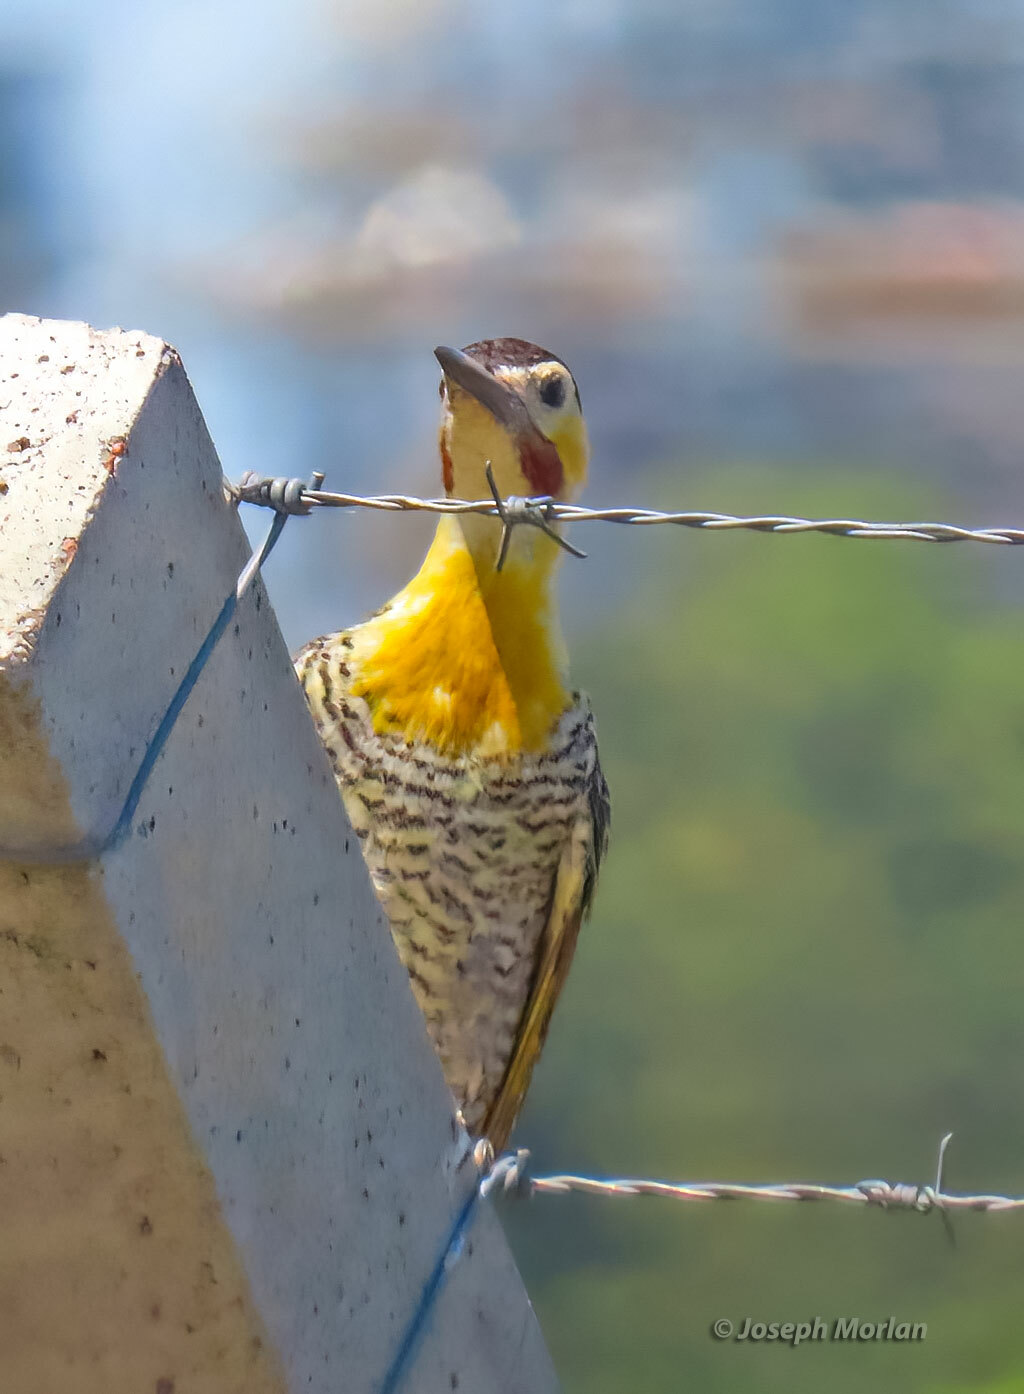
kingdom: Animalia
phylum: Chordata
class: Aves
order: Piciformes
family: Picidae
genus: Colaptes
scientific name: Colaptes campestris
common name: Campo flicker
